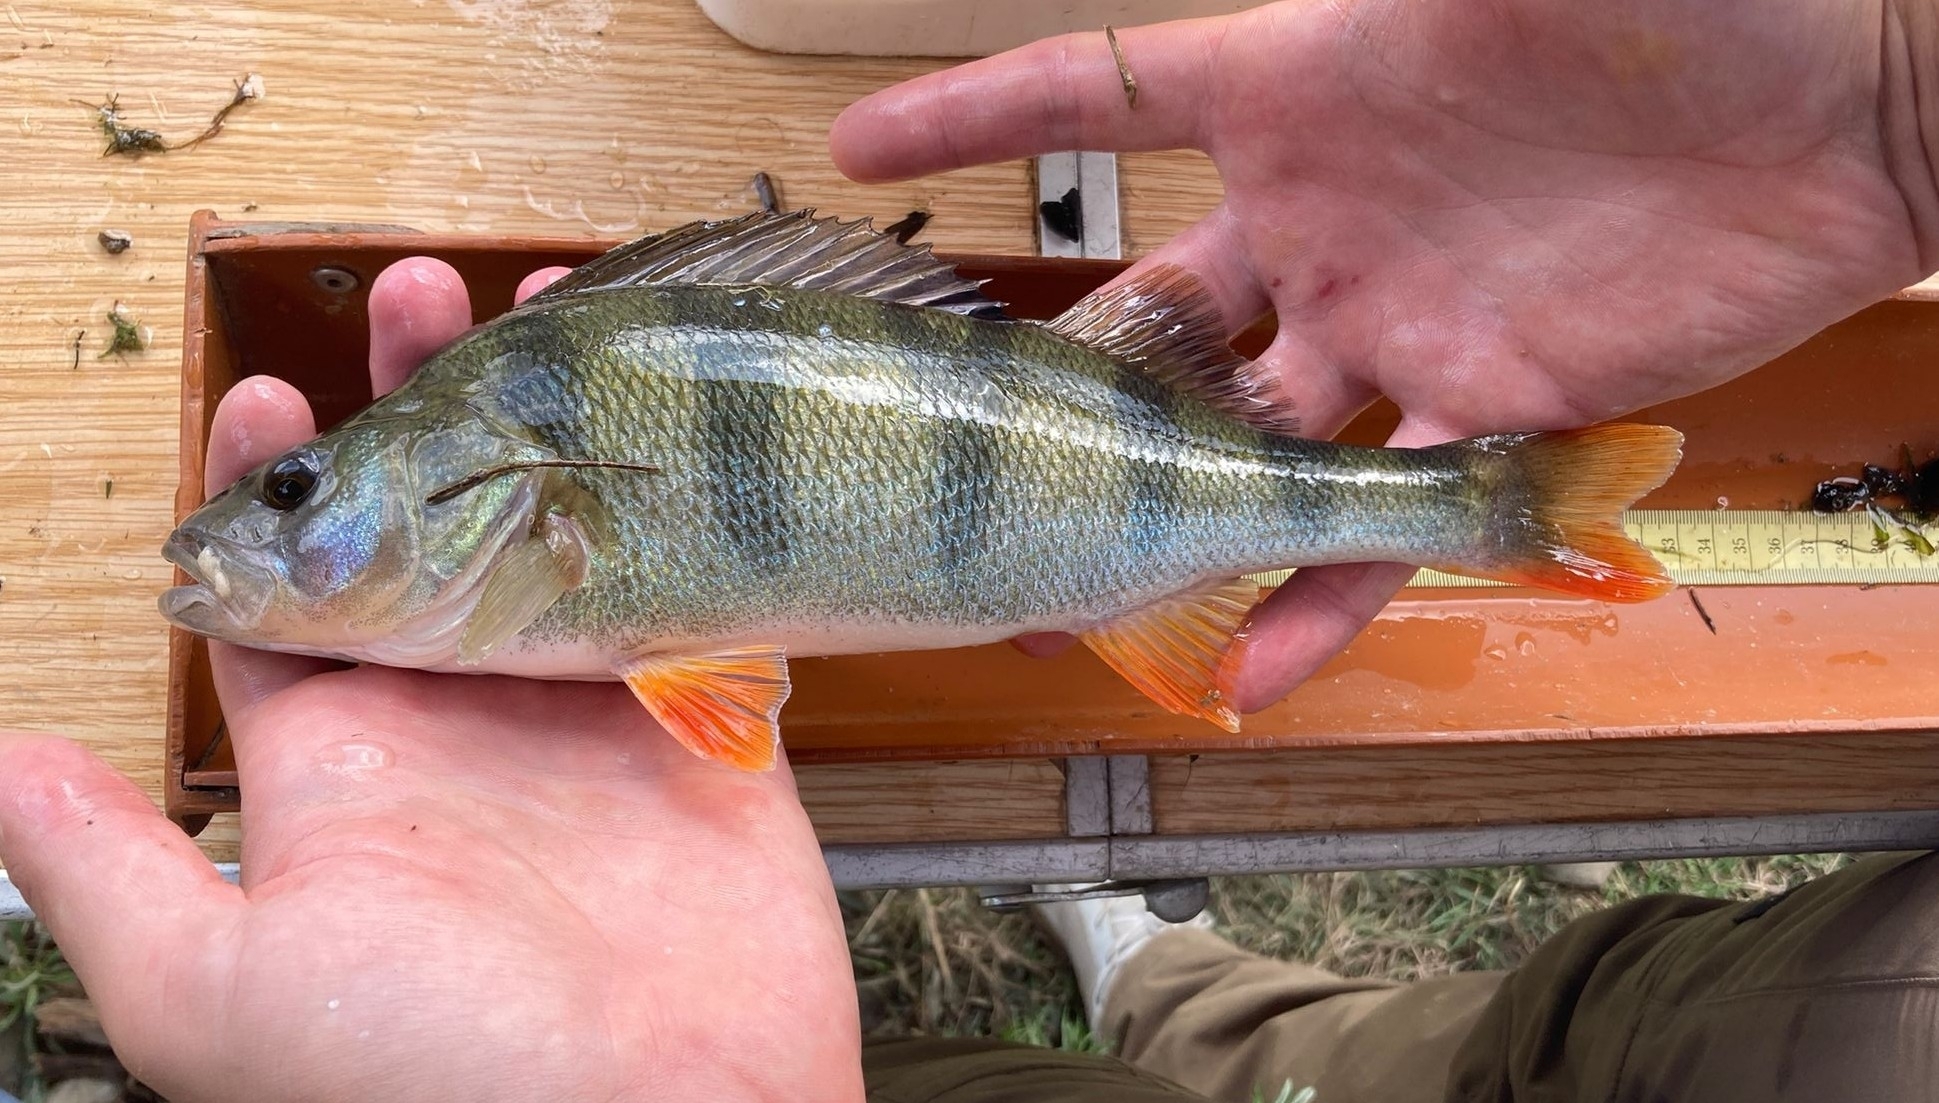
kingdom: Animalia
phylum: Chordata
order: Perciformes
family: Percidae
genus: Perca
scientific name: Perca fluviatilis
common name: Perch
